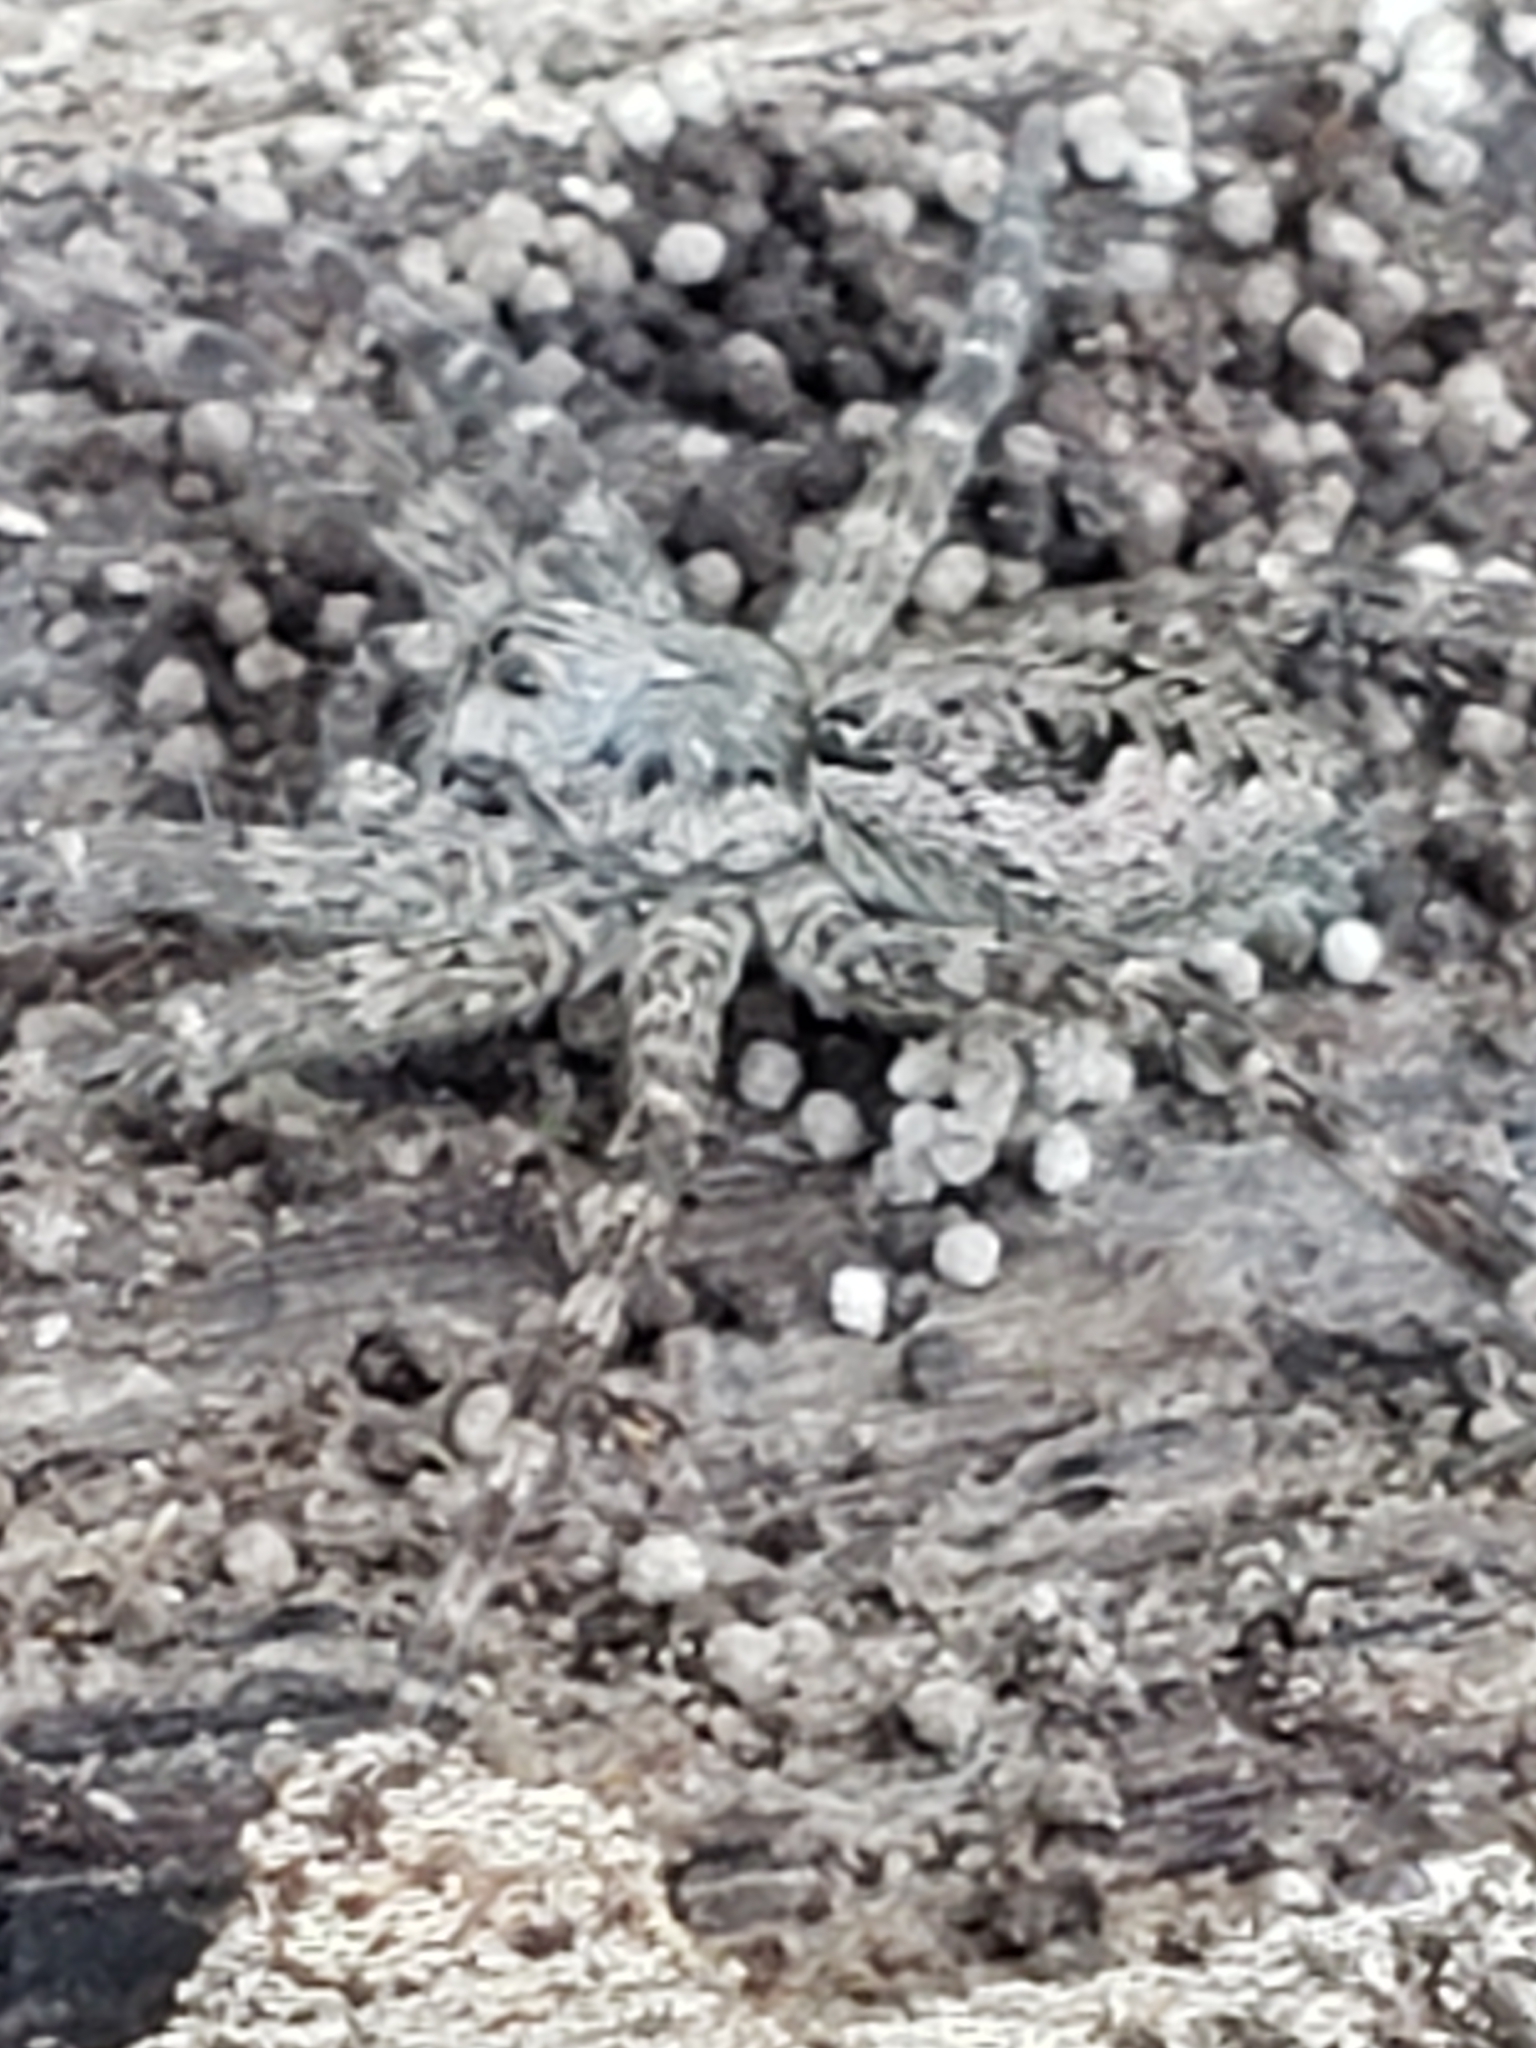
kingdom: Animalia
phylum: Arthropoda
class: Arachnida
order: Araneae
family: Pisauridae
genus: Dolomedes
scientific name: Dolomedes albineus
